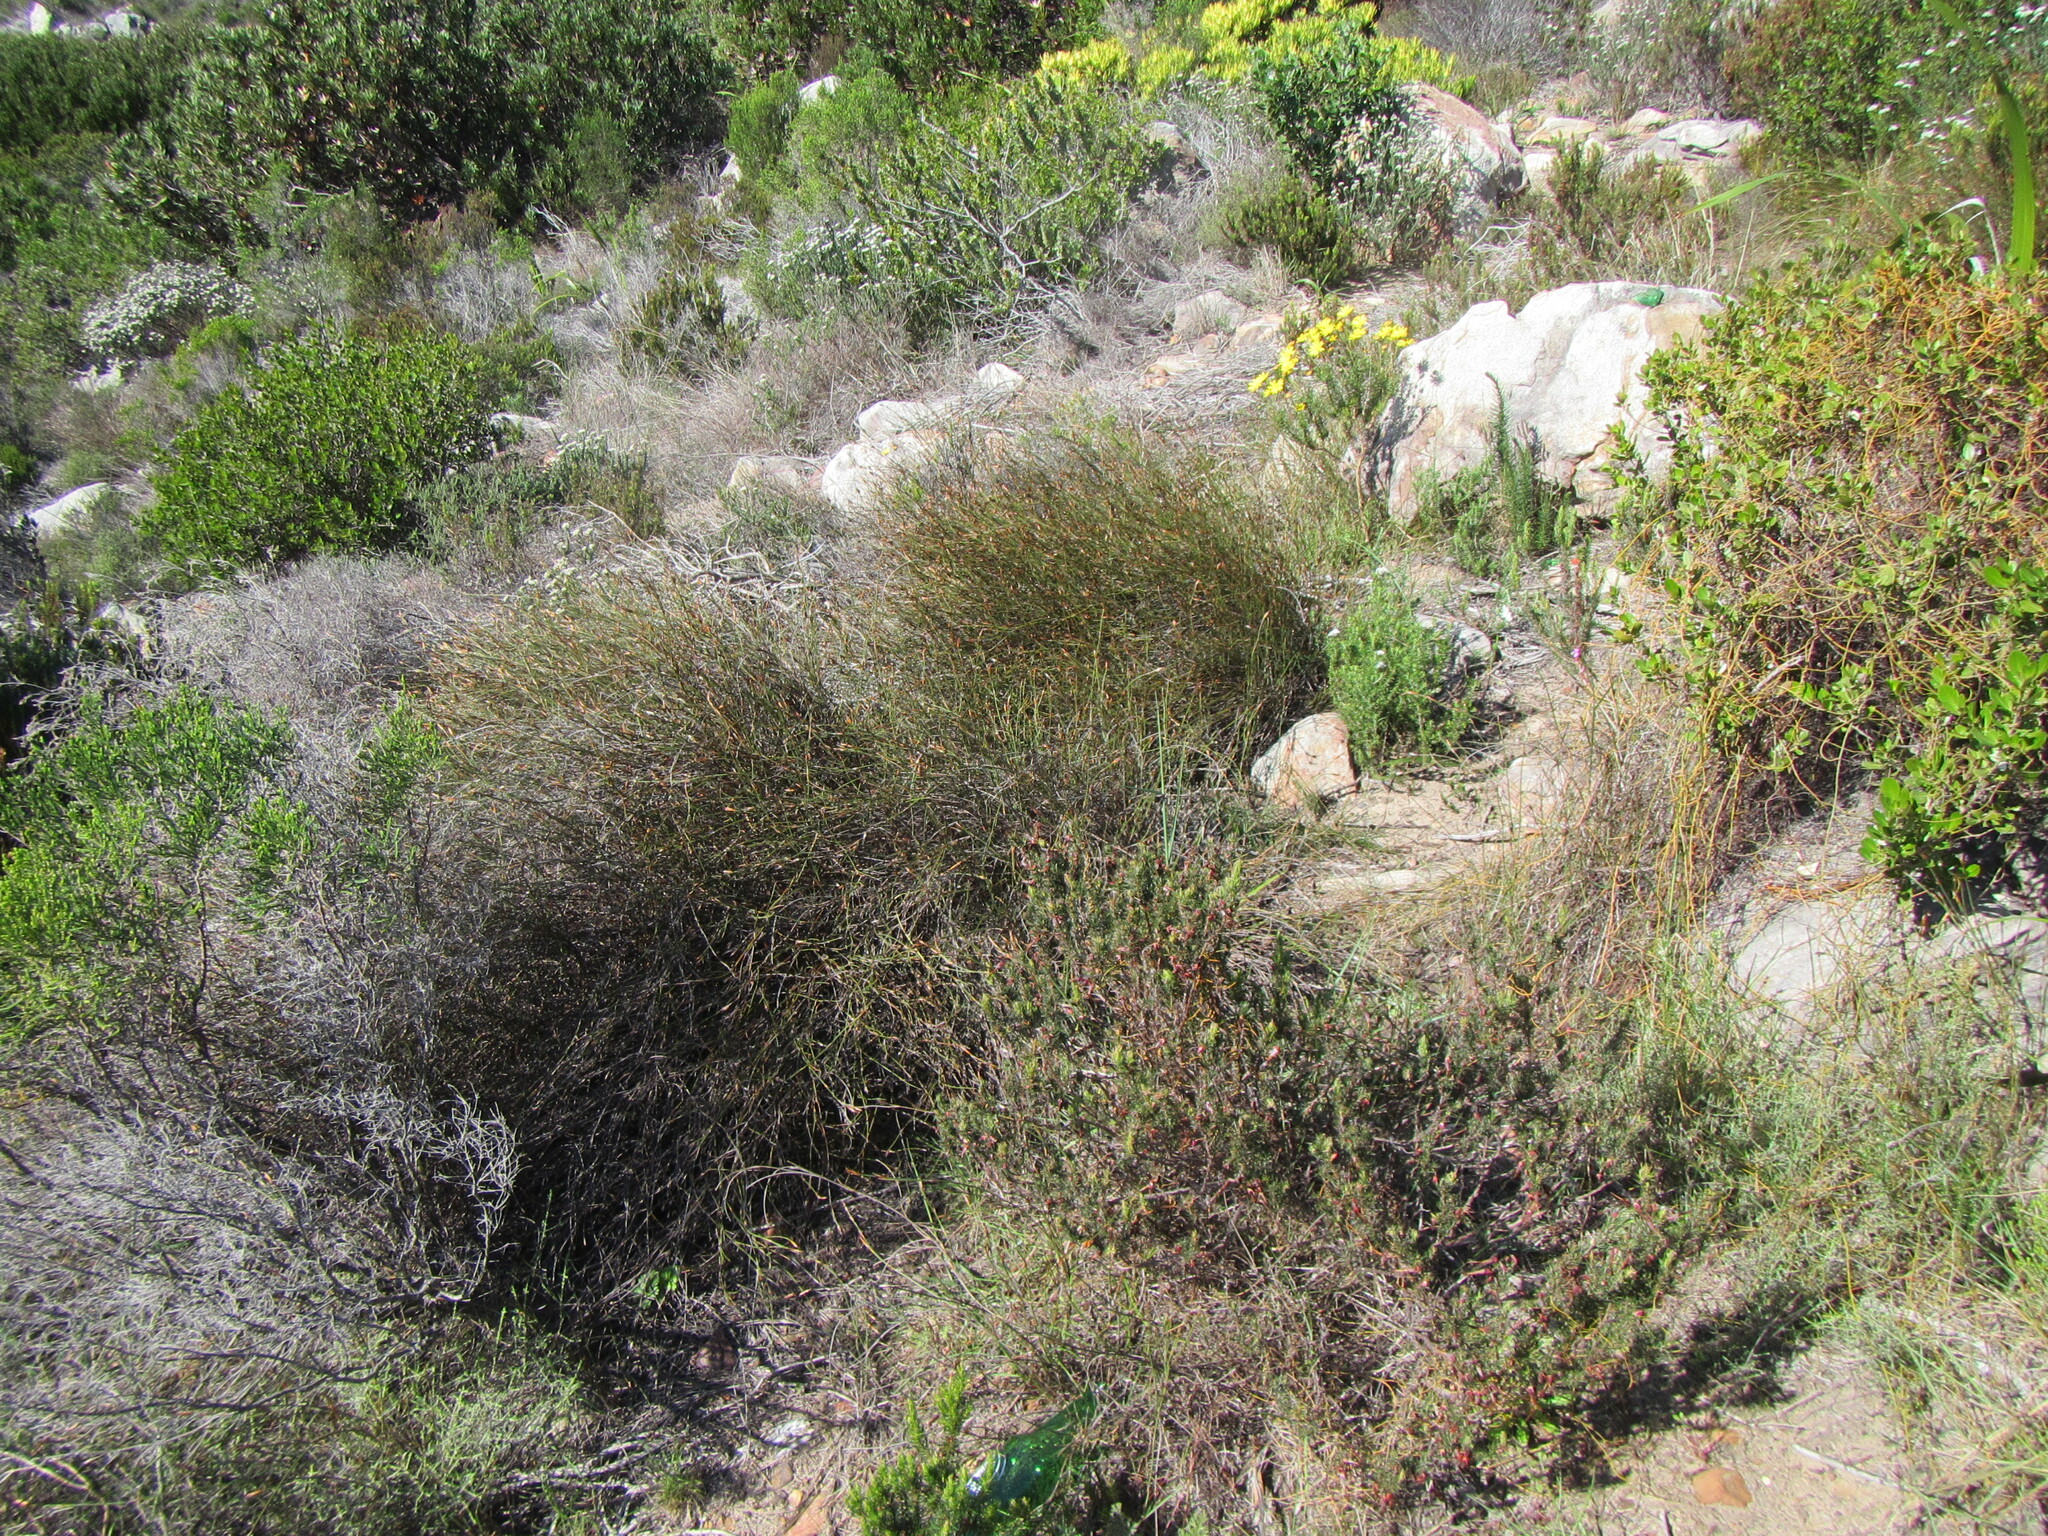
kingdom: Plantae
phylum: Tracheophyta
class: Liliopsida
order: Poales
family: Restionaceae
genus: Willdenowia
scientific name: Willdenowia arescens
